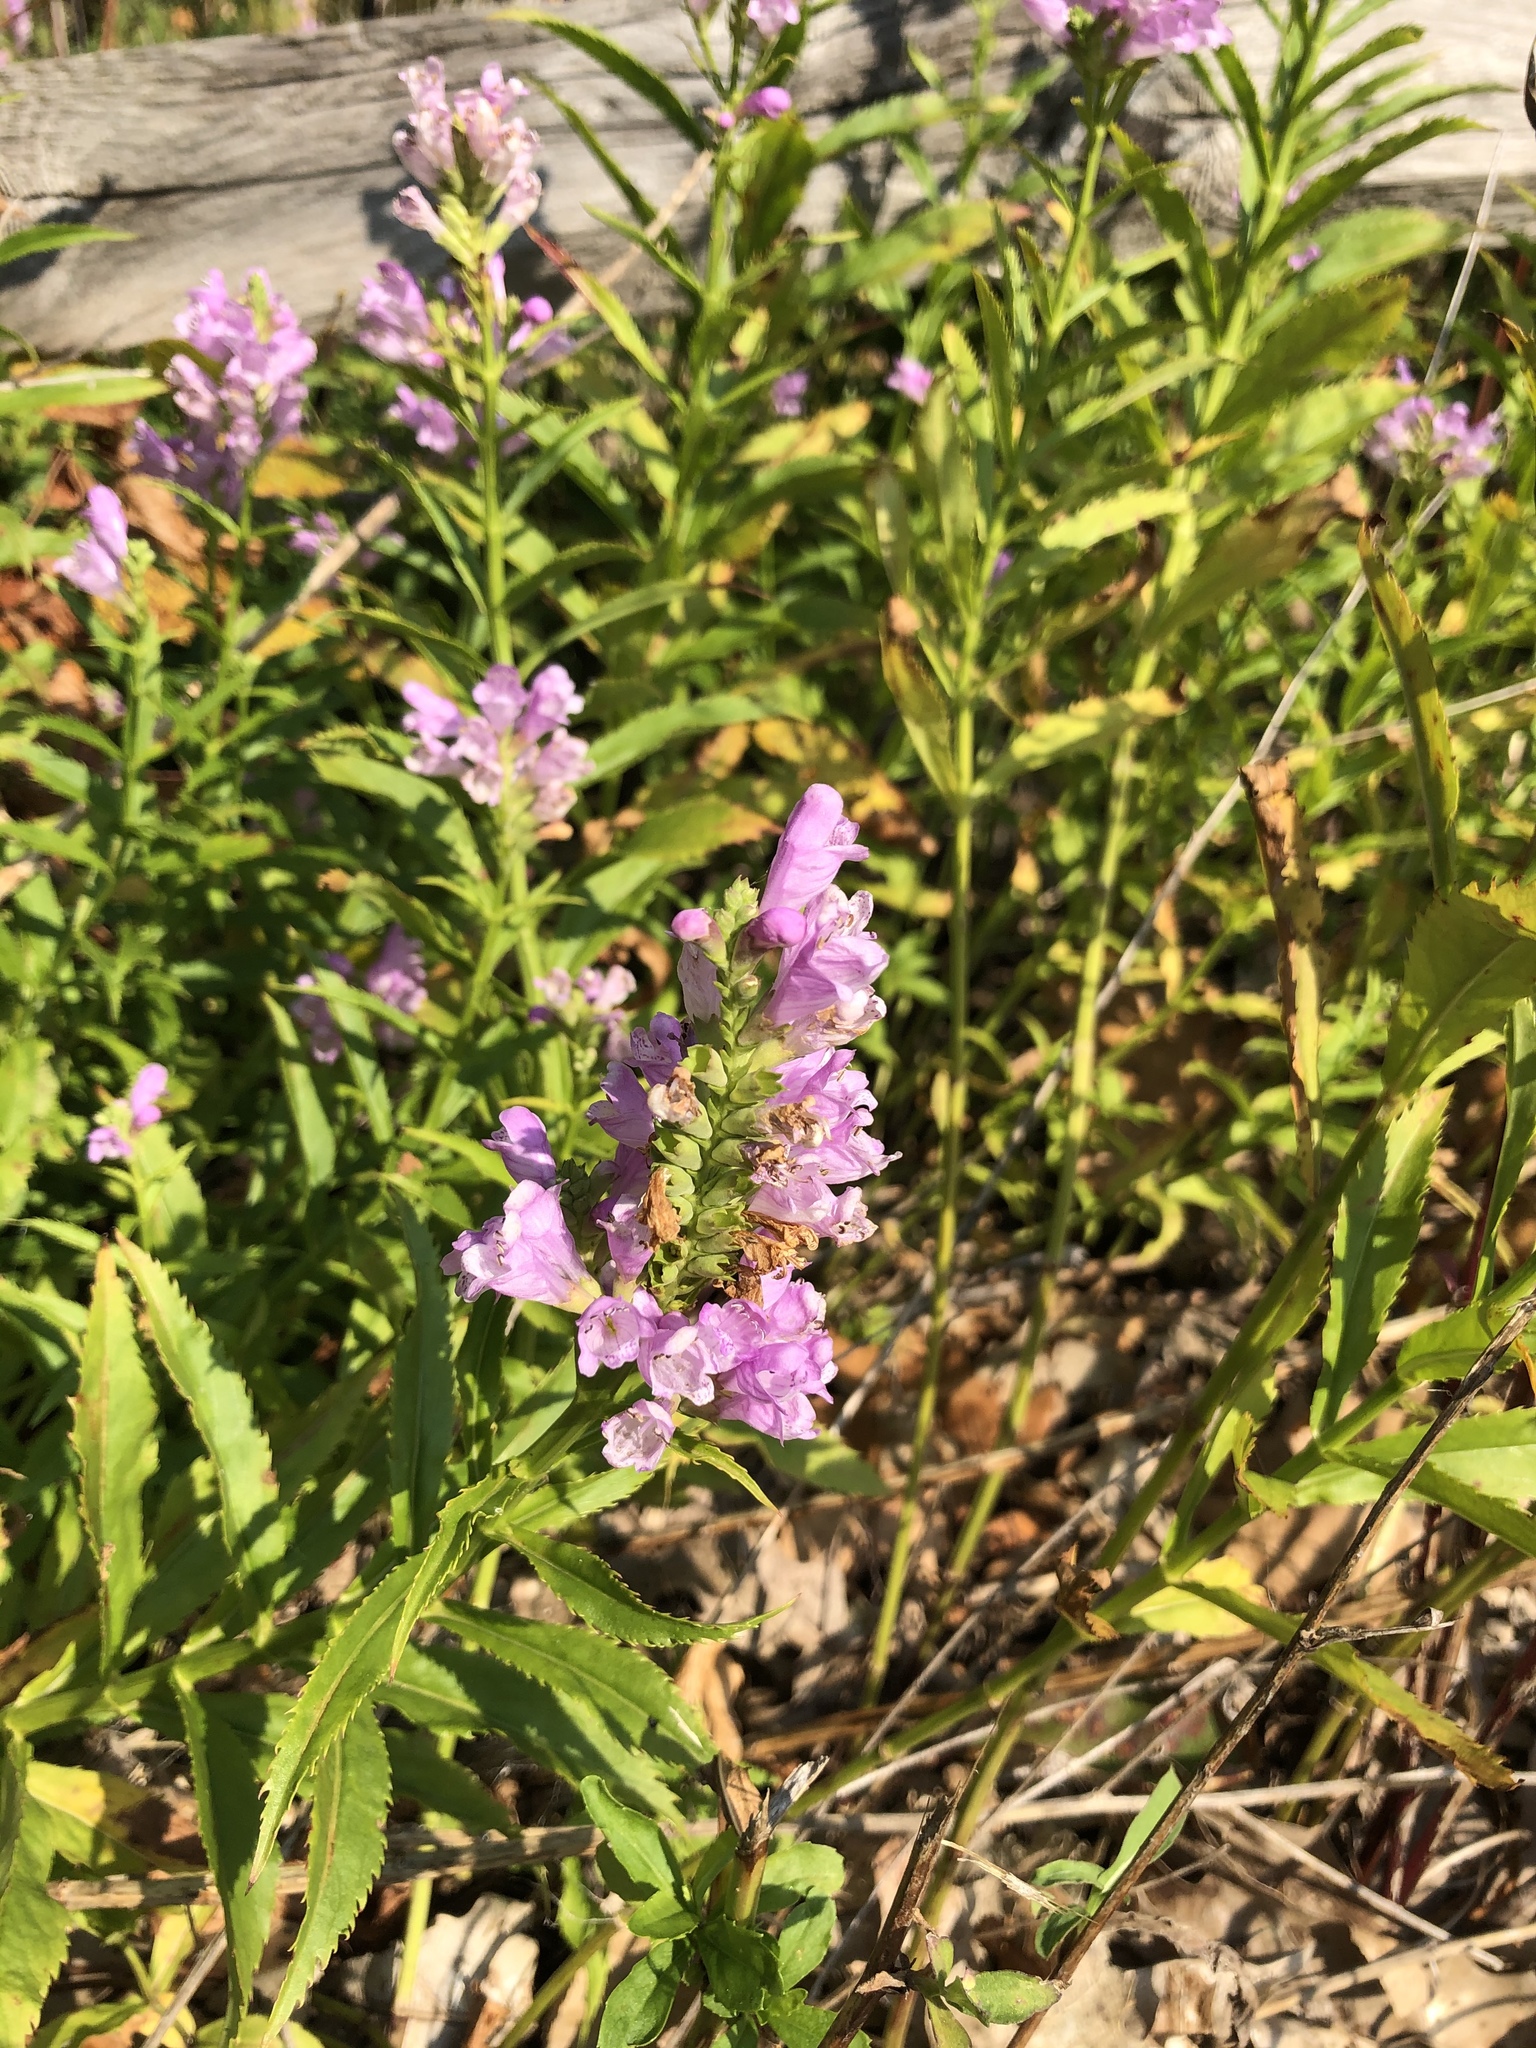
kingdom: Plantae
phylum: Tracheophyta
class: Magnoliopsida
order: Lamiales
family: Lamiaceae
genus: Physostegia
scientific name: Physostegia virginiana
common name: Obedient-plant
